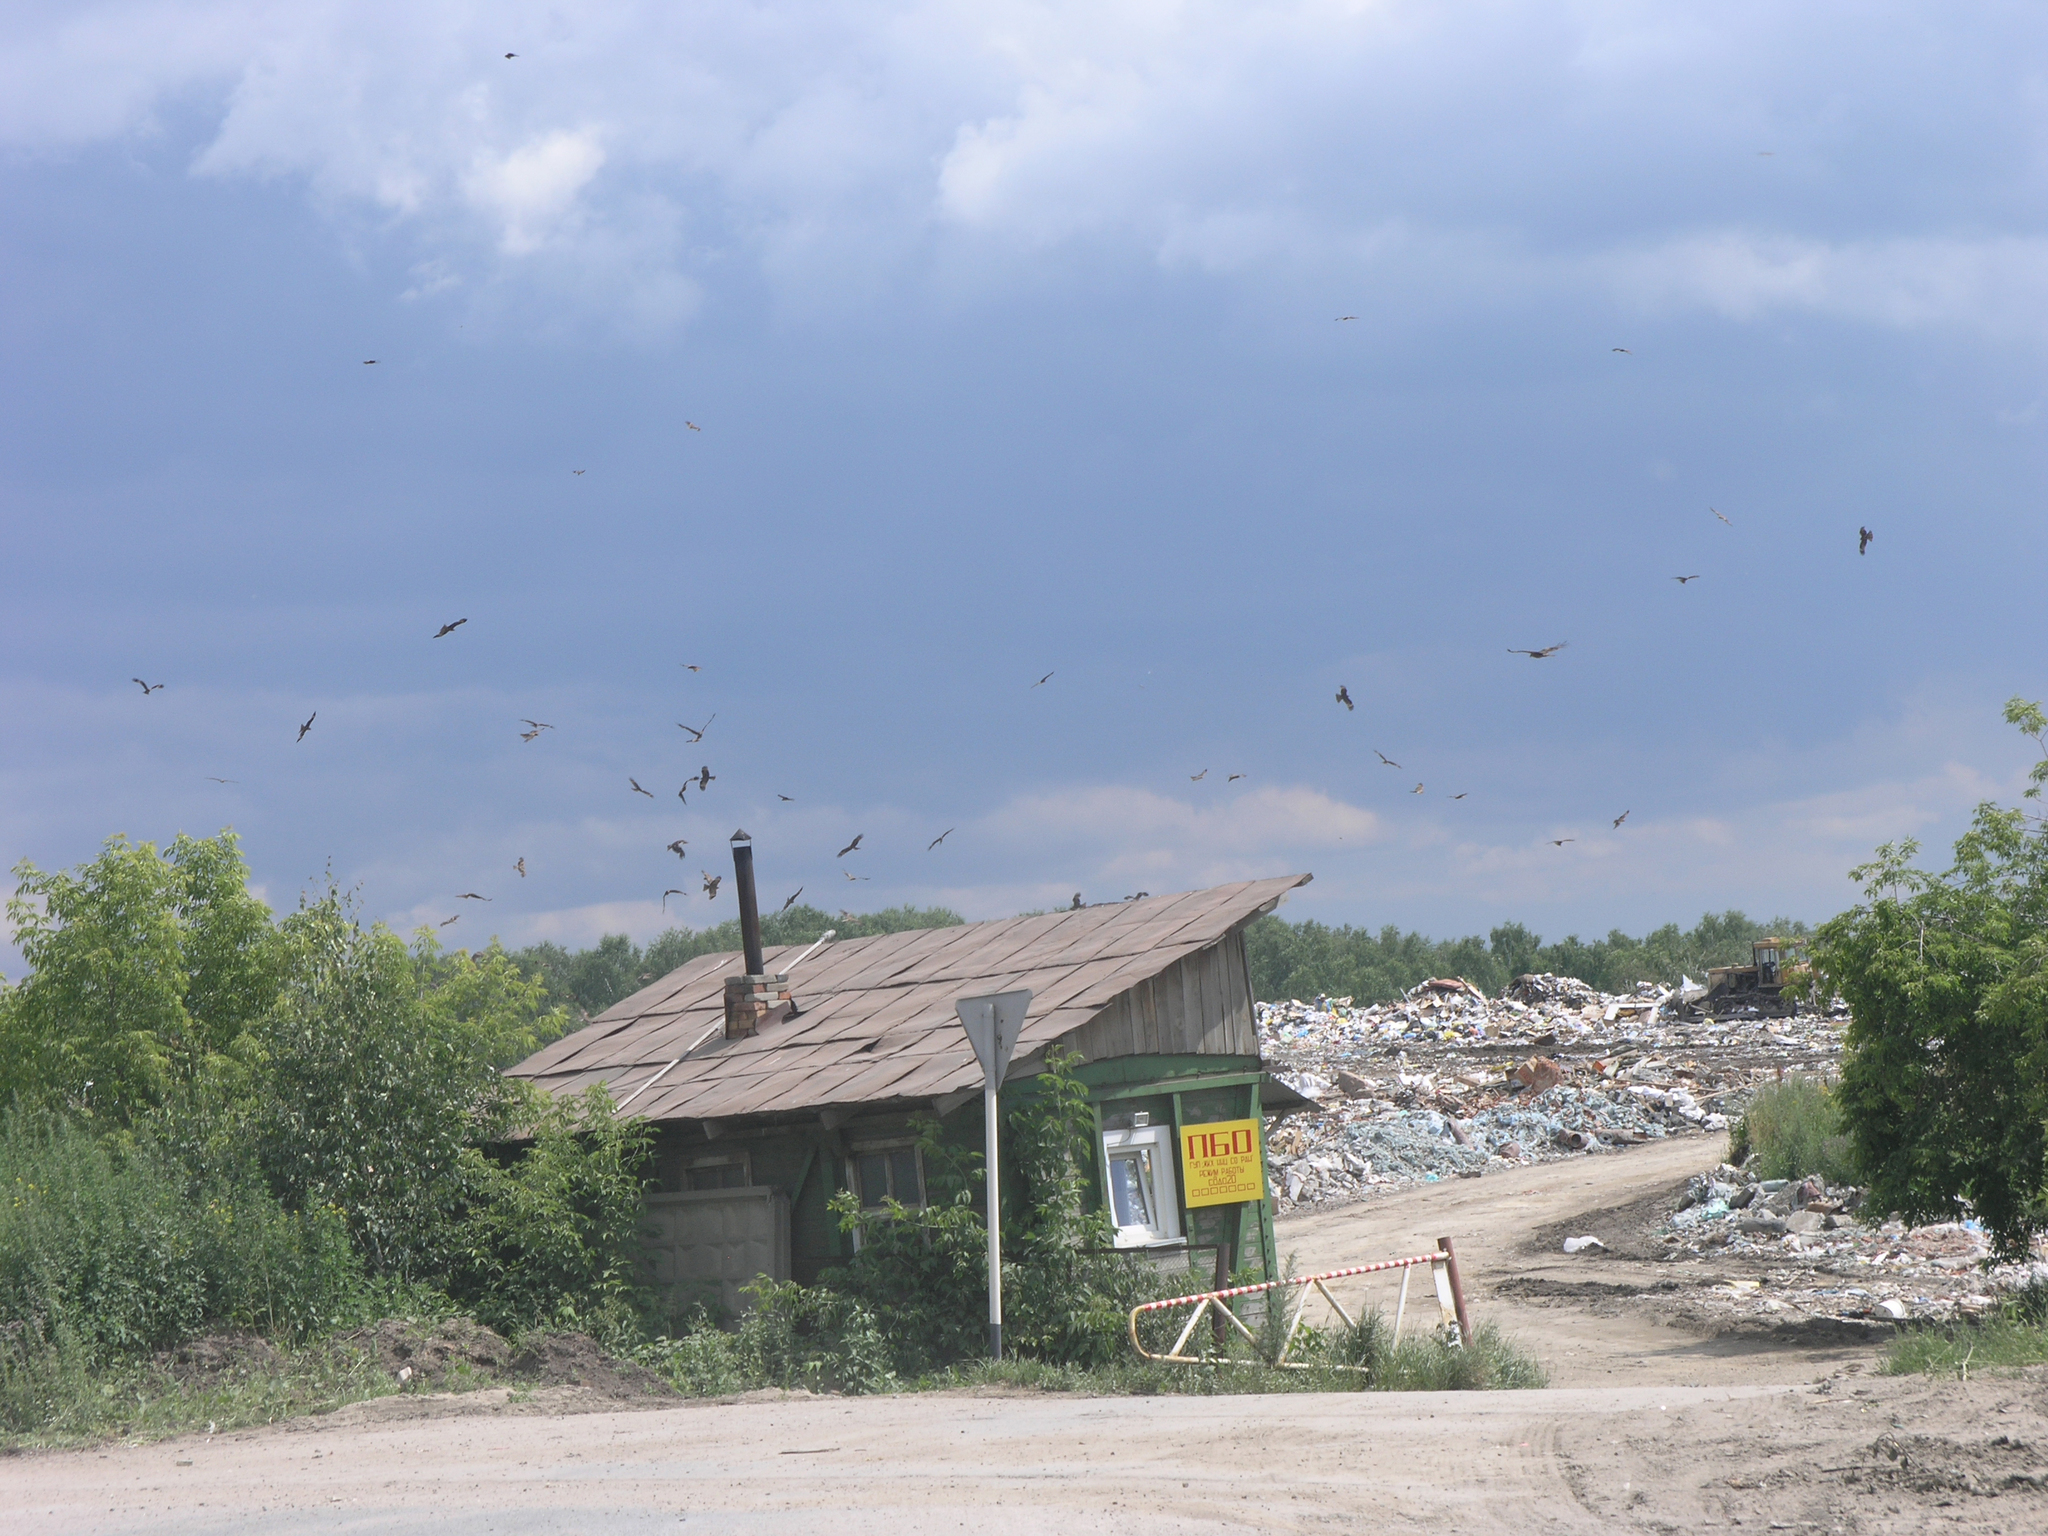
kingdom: Animalia
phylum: Chordata
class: Aves
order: Accipitriformes
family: Accipitridae
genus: Milvus
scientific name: Milvus migrans
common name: Black kite
